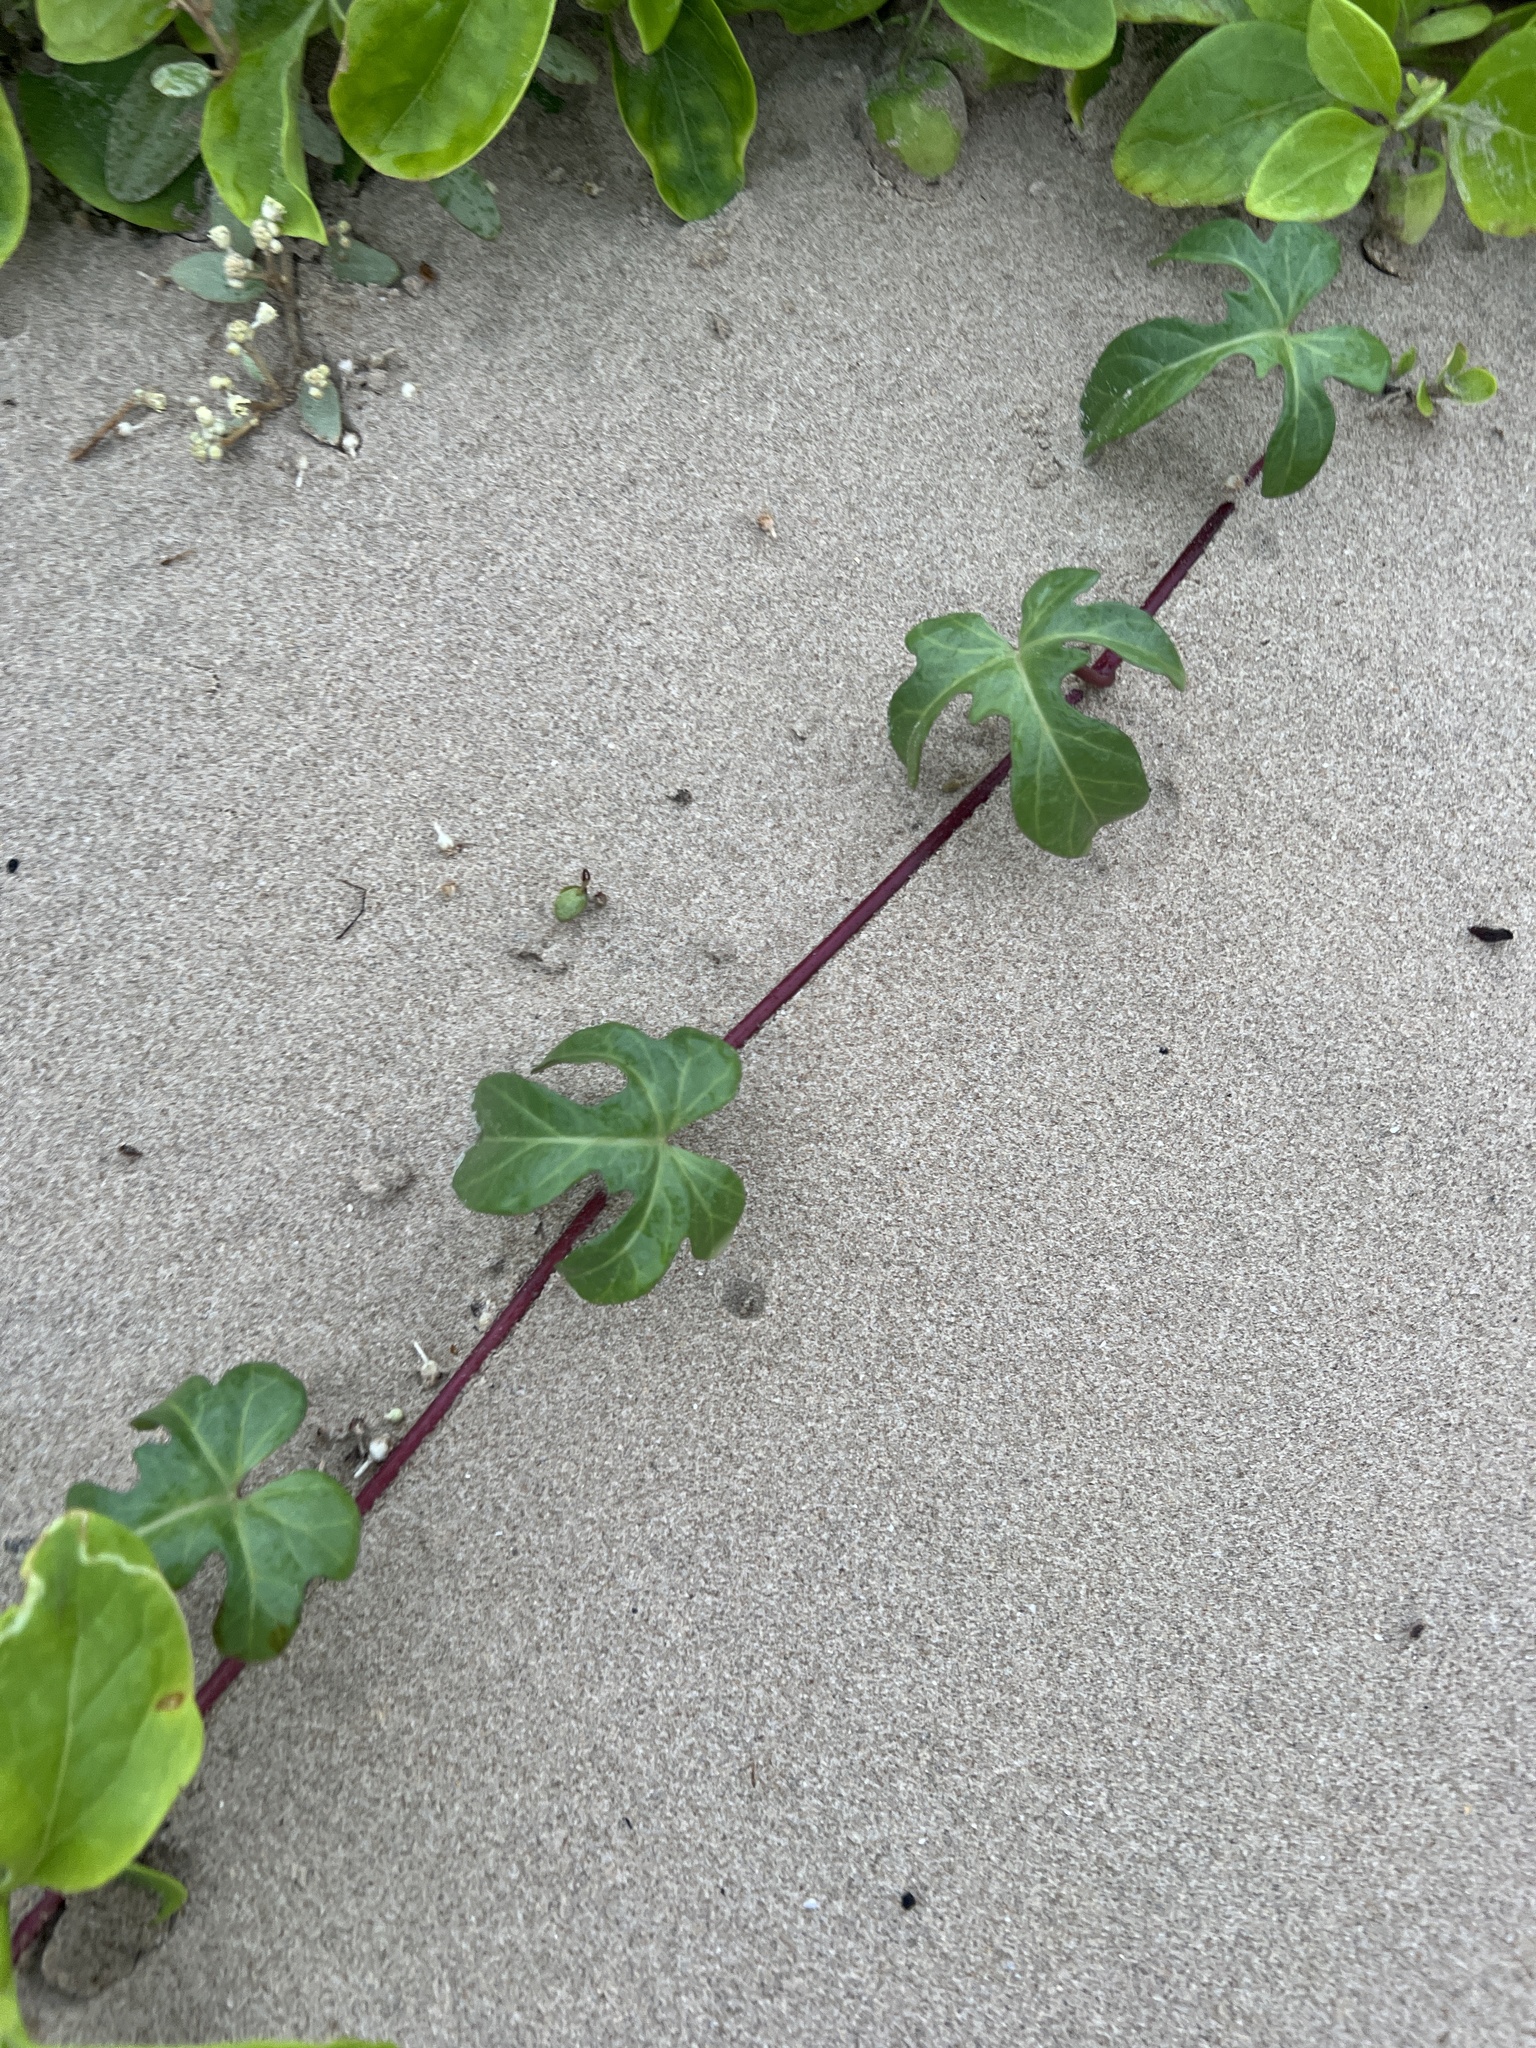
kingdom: Plantae
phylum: Tracheophyta
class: Magnoliopsida
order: Solanales
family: Convolvulaceae
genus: Ipomoea
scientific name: Ipomoea imperati
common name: Fiddle-leaf morning-glory
